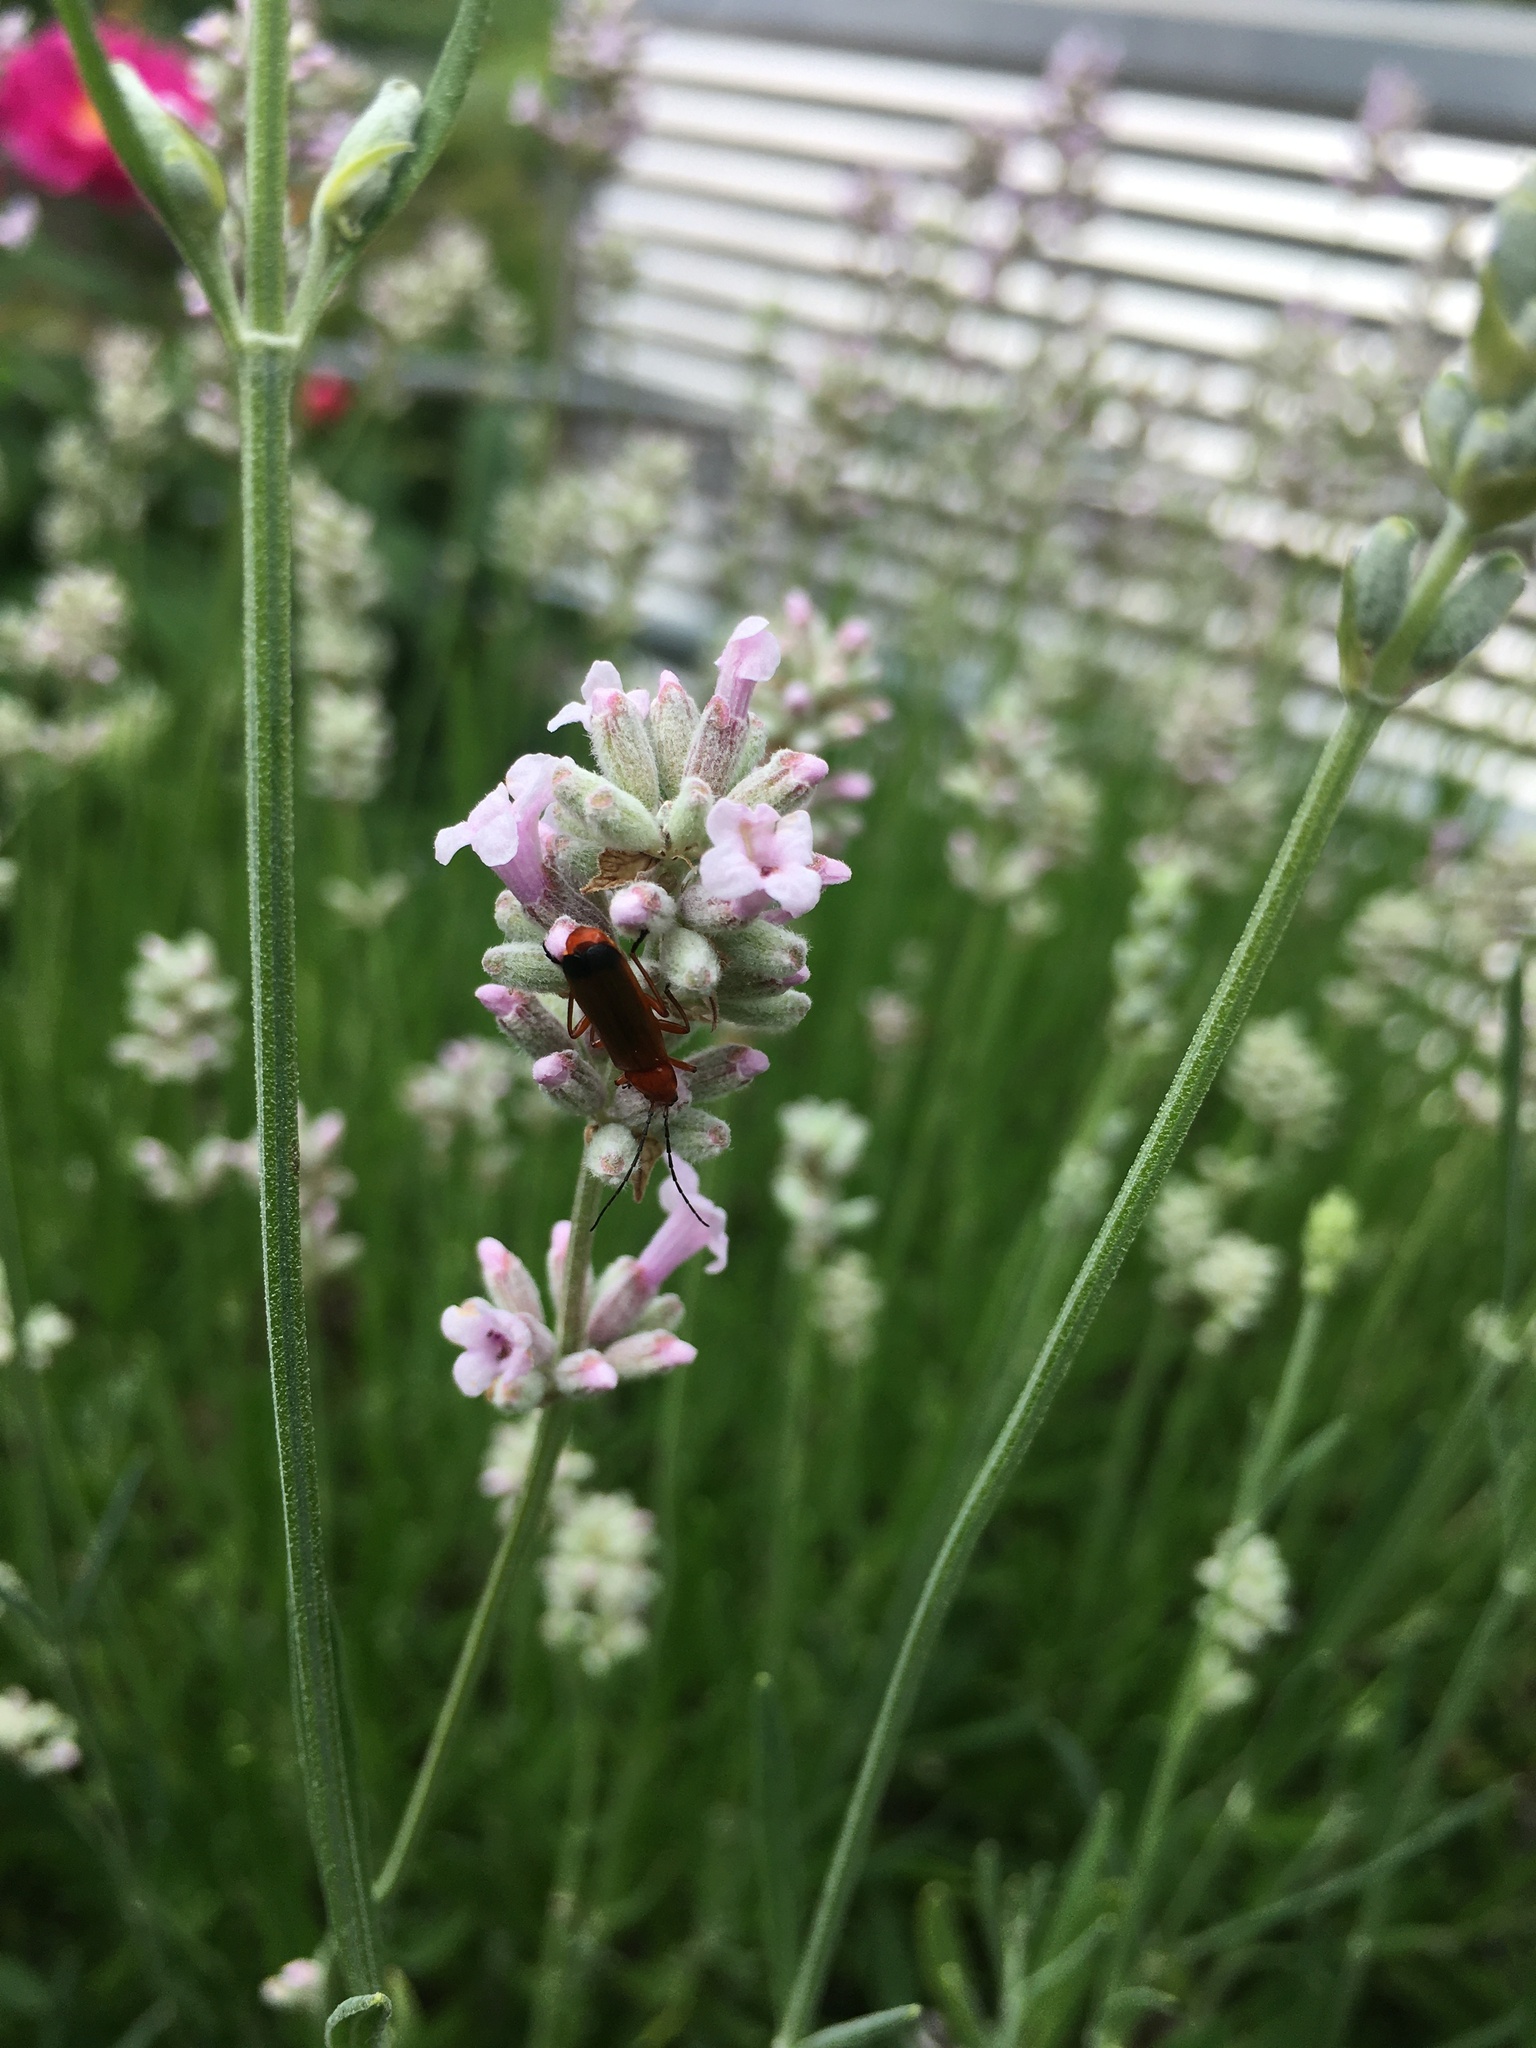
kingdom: Animalia
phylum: Arthropoda
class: Insecta
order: Coleoptera
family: Cantharidae
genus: Rhagonycha
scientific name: Rhagonycha fulva
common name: Common red soldier beetle
